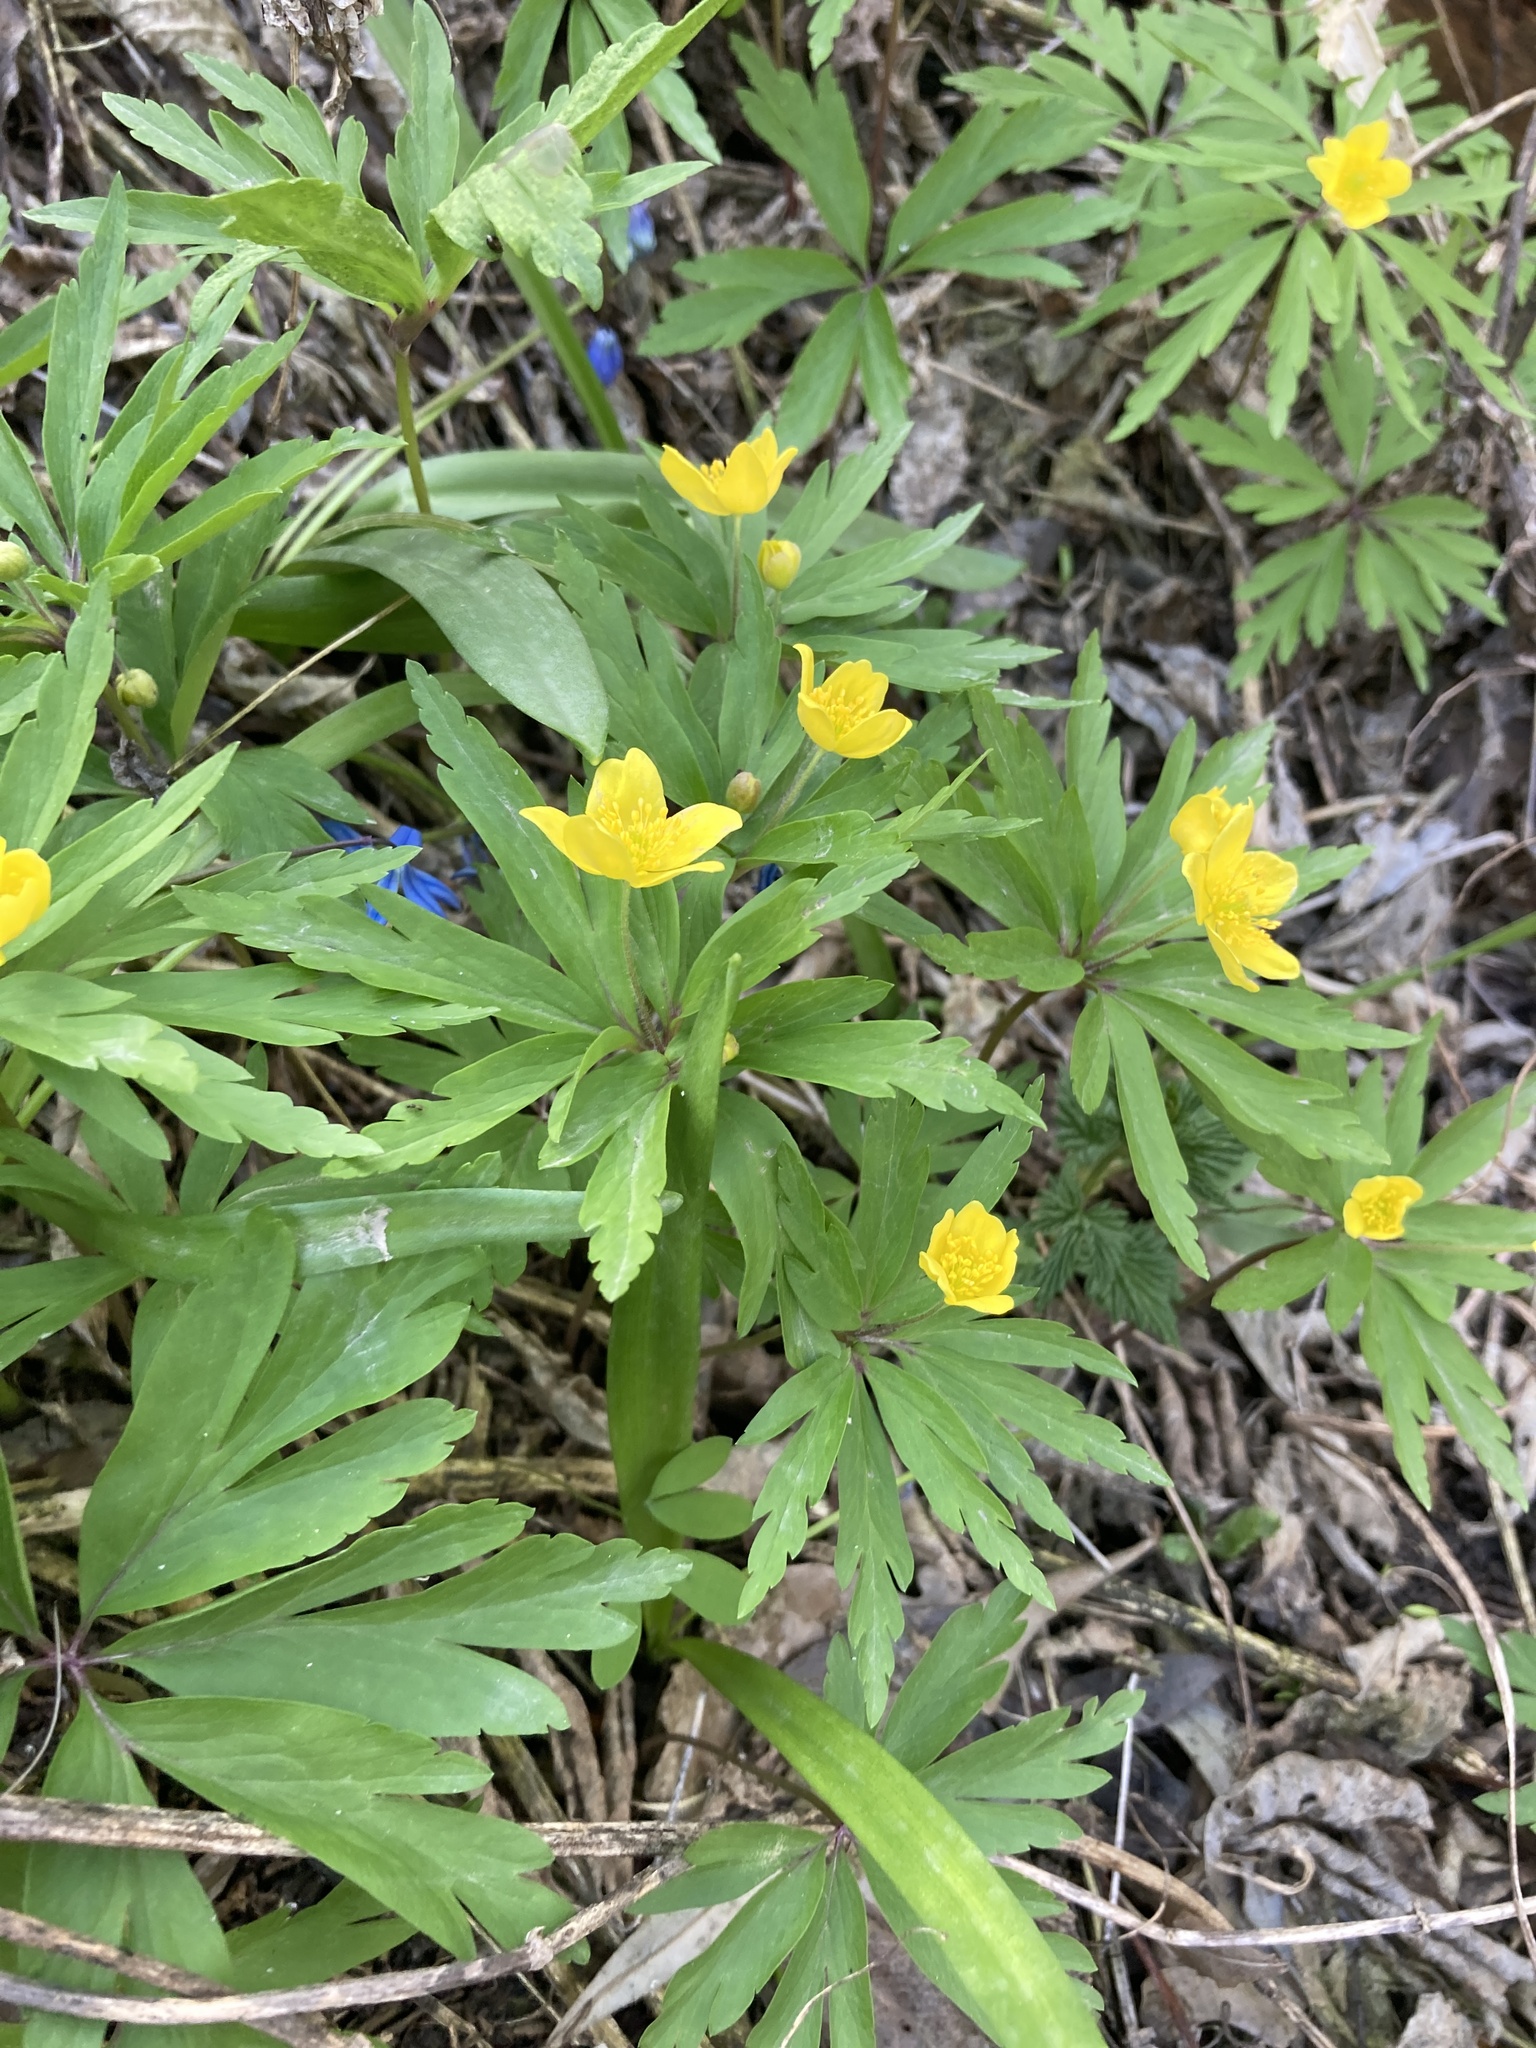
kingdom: Plantae
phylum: Tracheophyta
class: Magnoliopsida
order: Ranunculales
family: Ranunculaceae
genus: Anemone
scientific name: Anemone ranunculoides
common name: Yellow anemone
